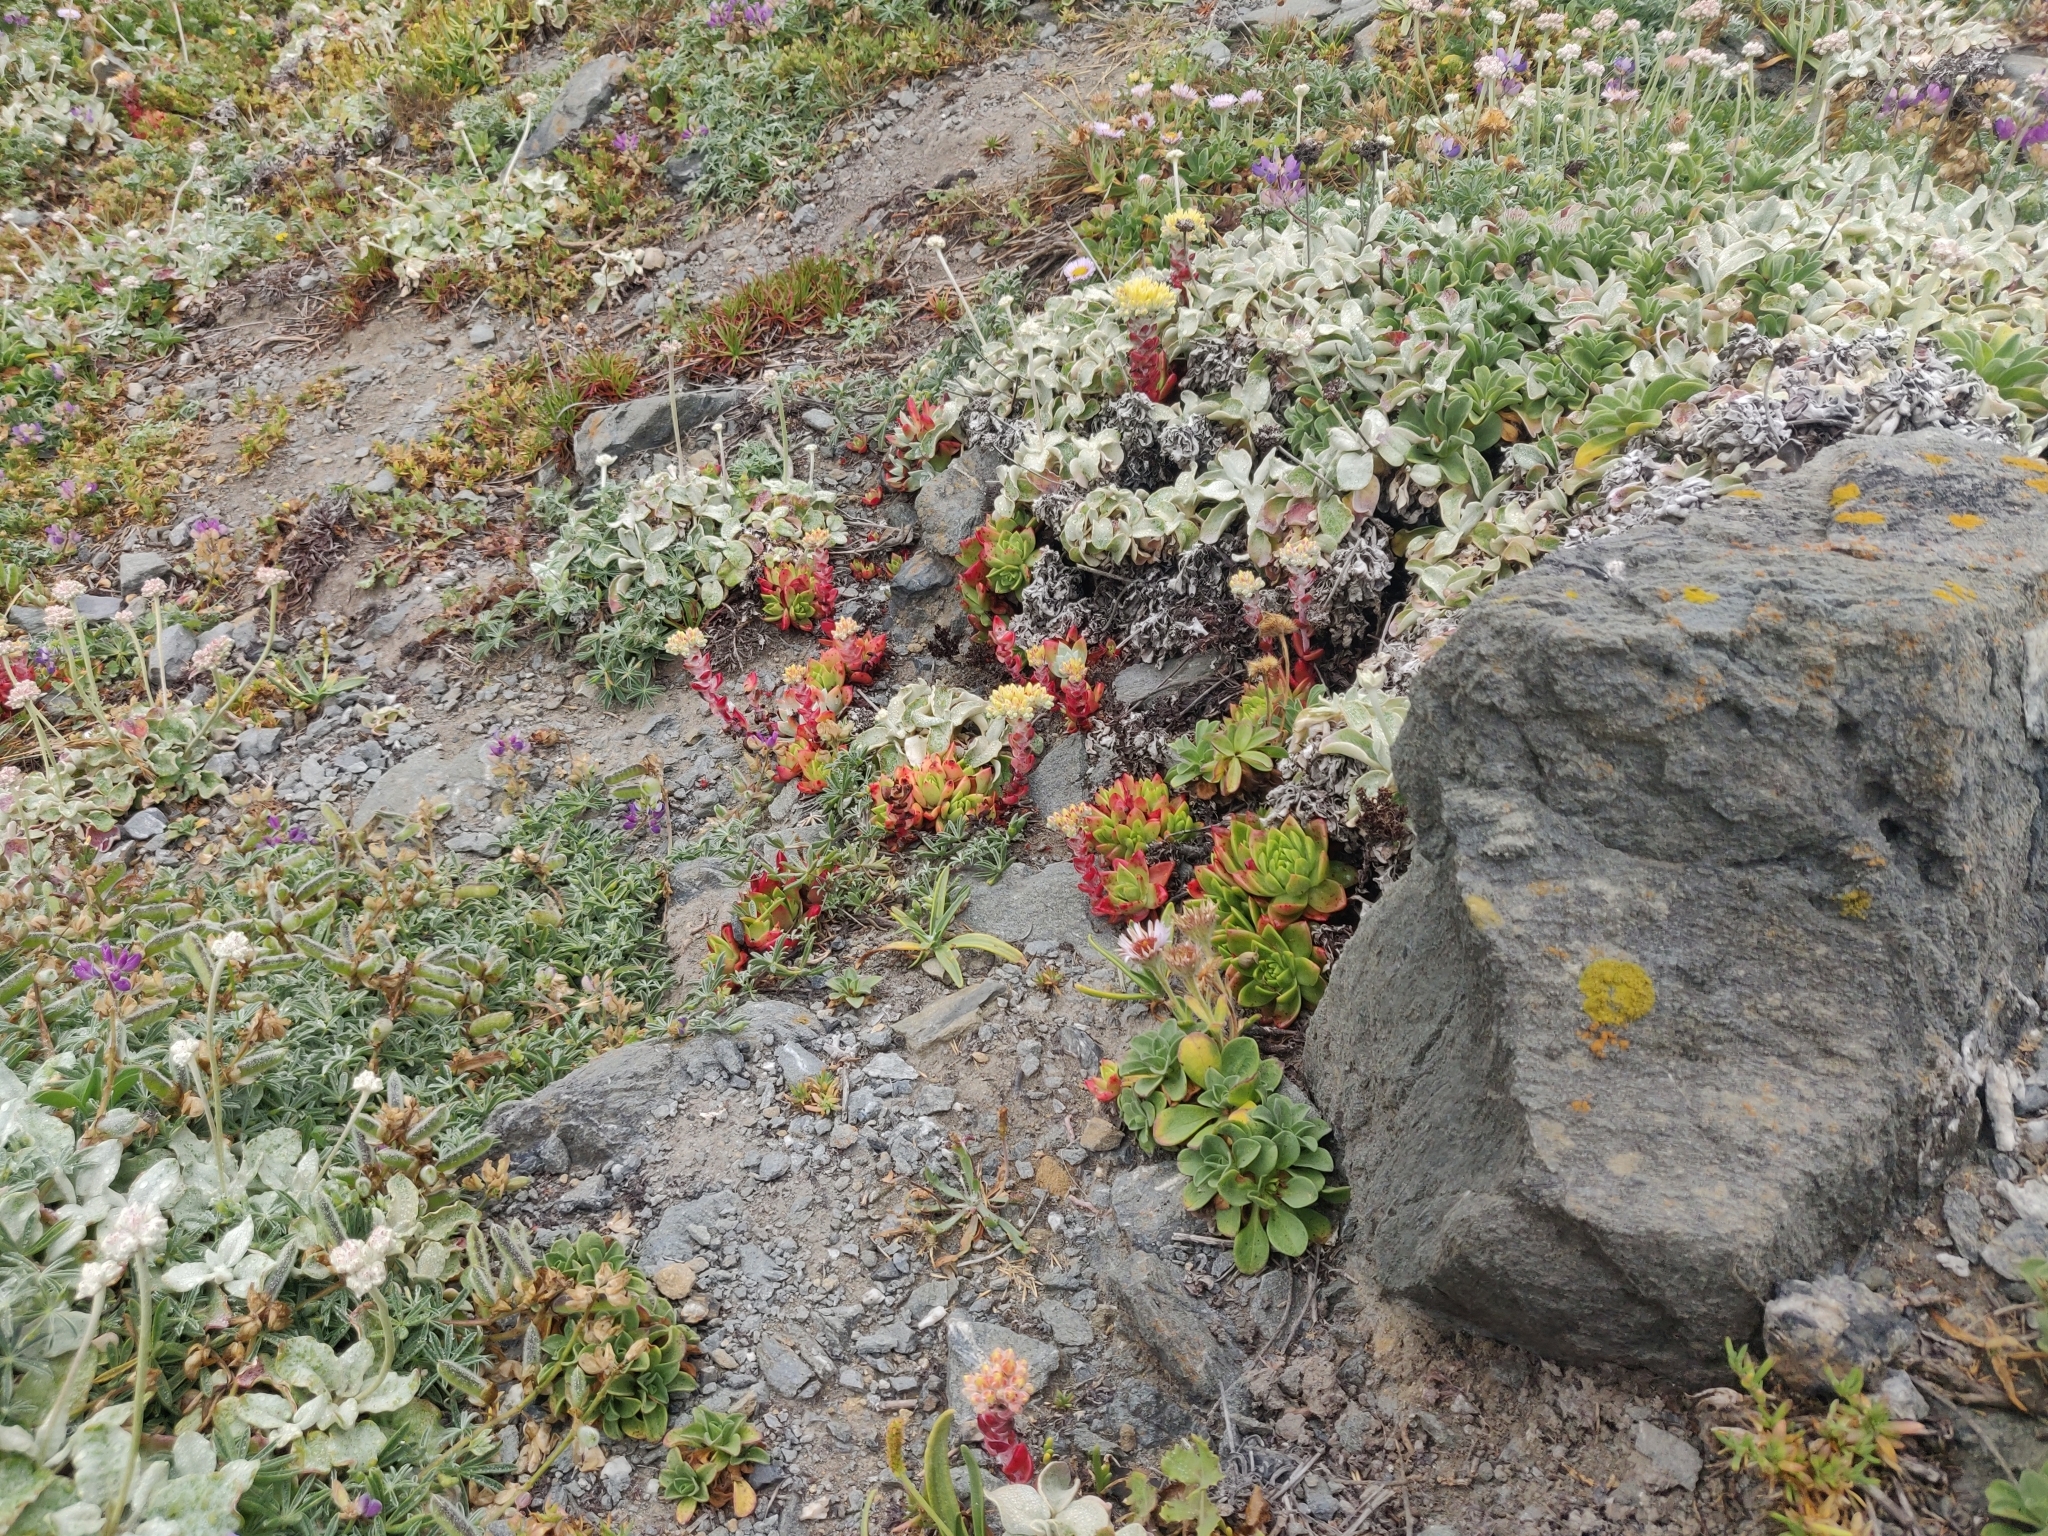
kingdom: Plantae
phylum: Tracheophyta
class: Magnoliopsida
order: Saxifragales
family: Crassulaceae
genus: Dudleya
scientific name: Dudleya farinosa
